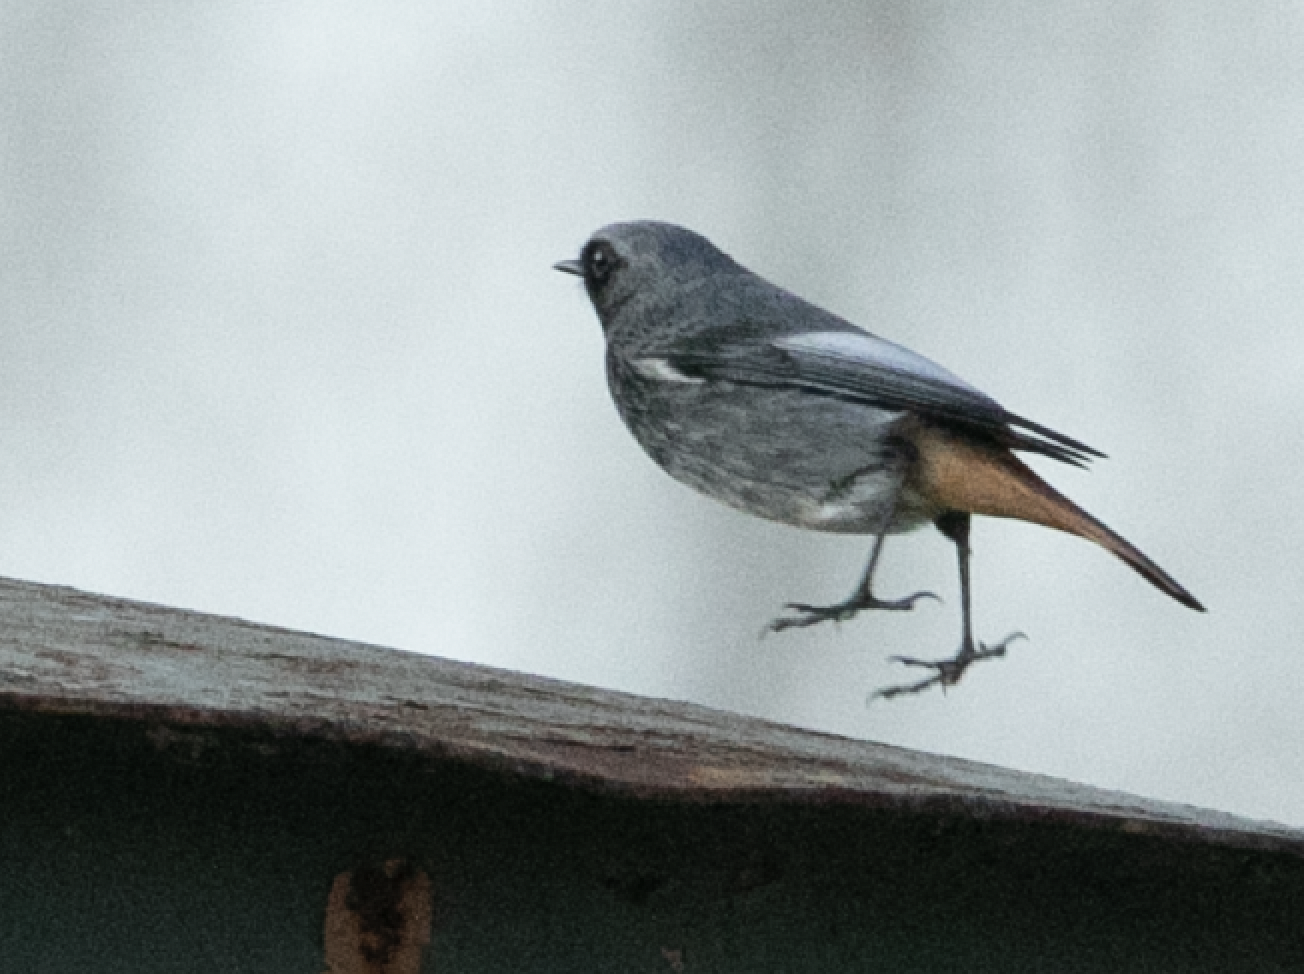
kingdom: Animalia
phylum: Chordata
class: Aves
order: Passeriformes
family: Muscicapidae
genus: Phoenicurus
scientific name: Phoenicurus ochruros
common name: Black redstart
